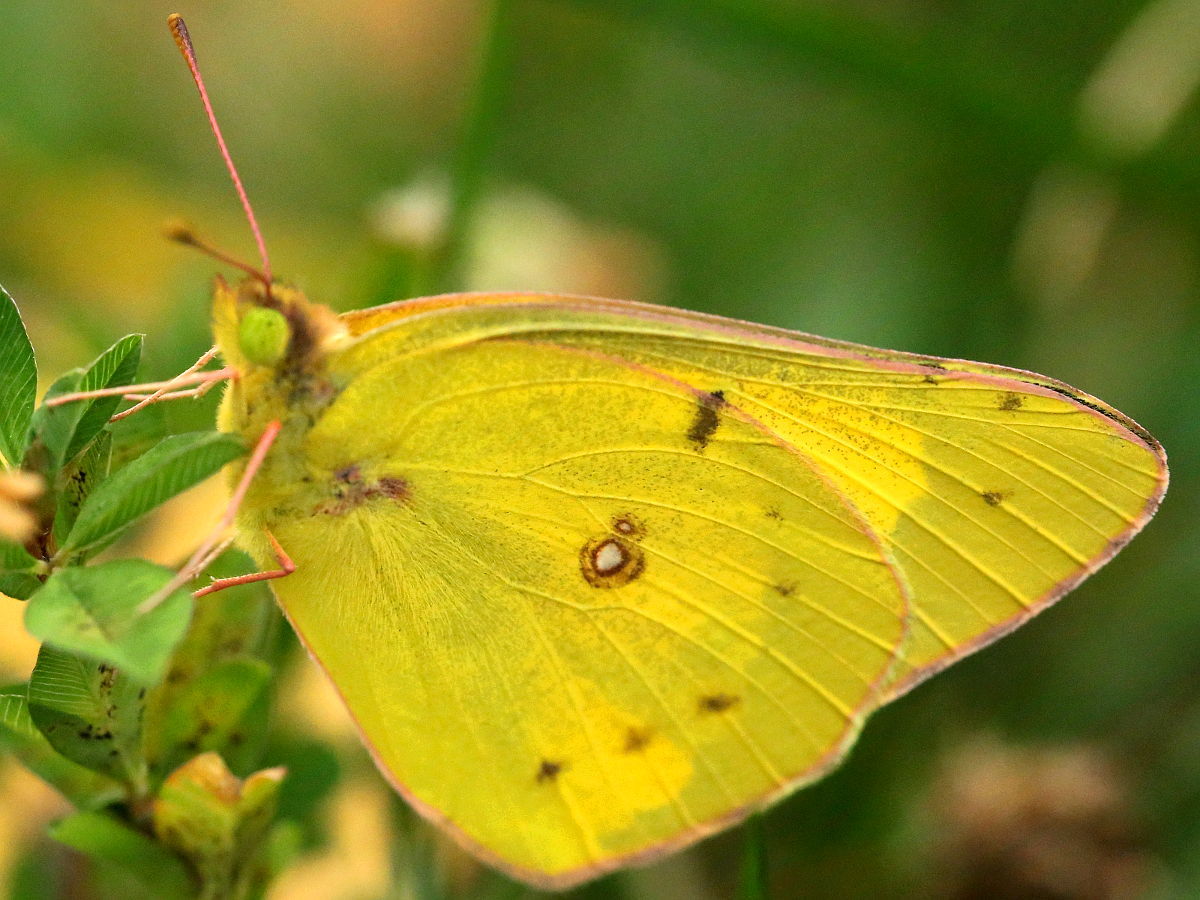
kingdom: Animalia
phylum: Arthropoda
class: Insecta
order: Lepidoptera
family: Pieridae
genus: Colias
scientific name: Colias eurytheme
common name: Alfalfa butterfly
